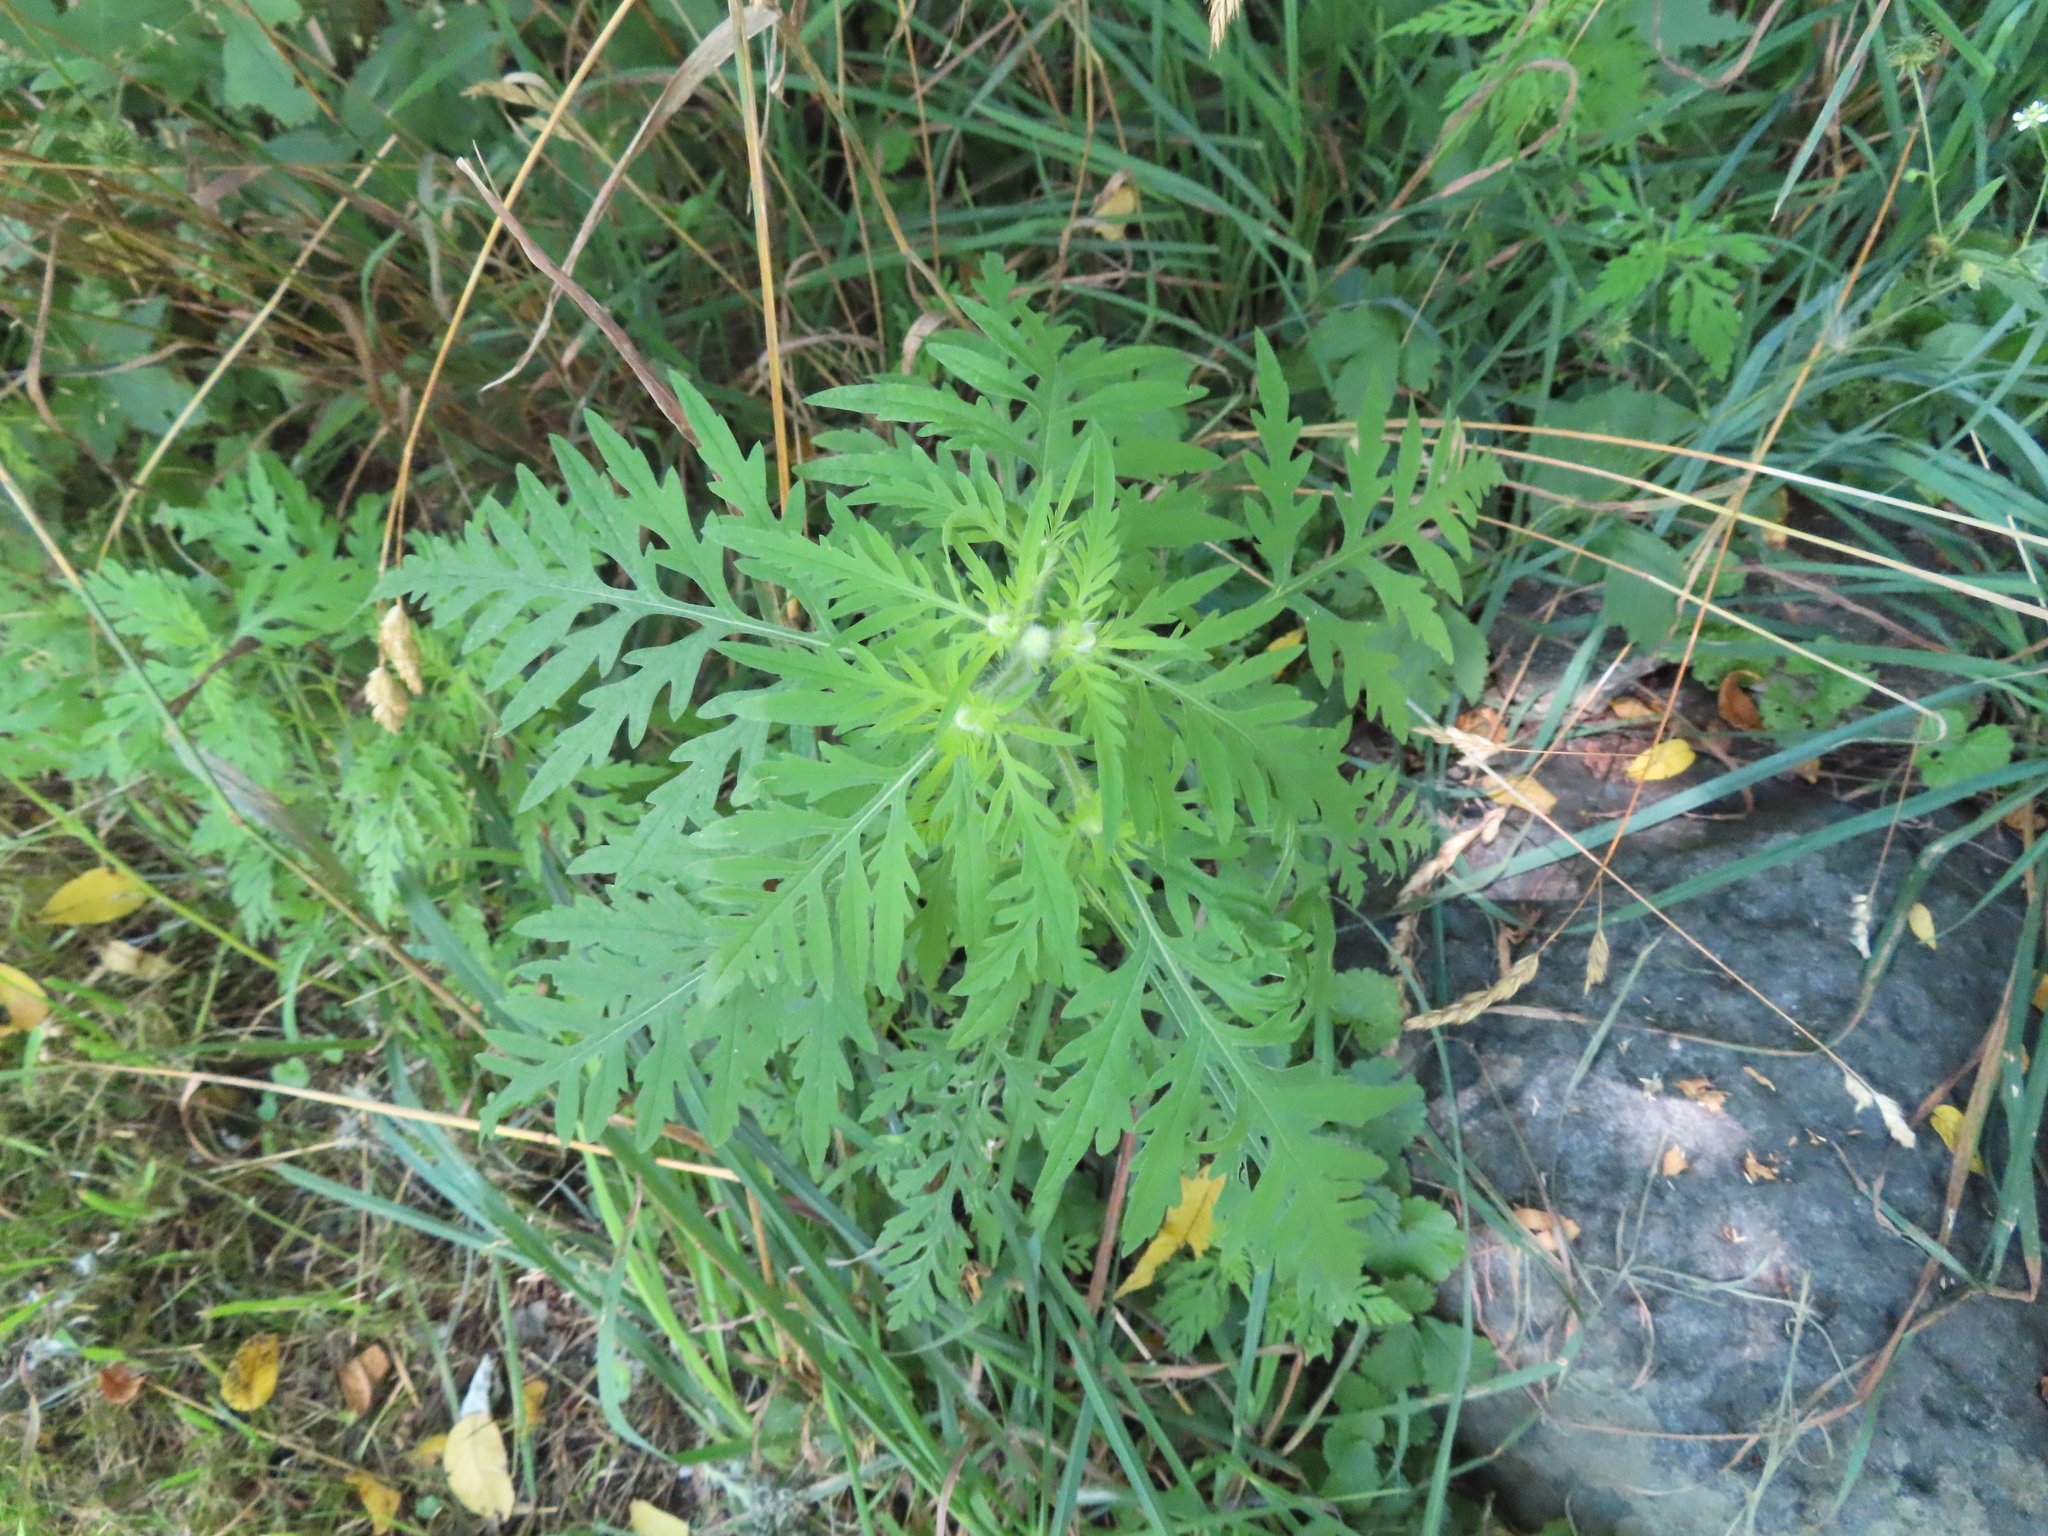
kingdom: Plantae
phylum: Tracheophyta
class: Magnoliopsida
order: Asterales
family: Asteraceae
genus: Ambrosia
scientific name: Ambrosia artemisiifolia
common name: Annual ragweed
